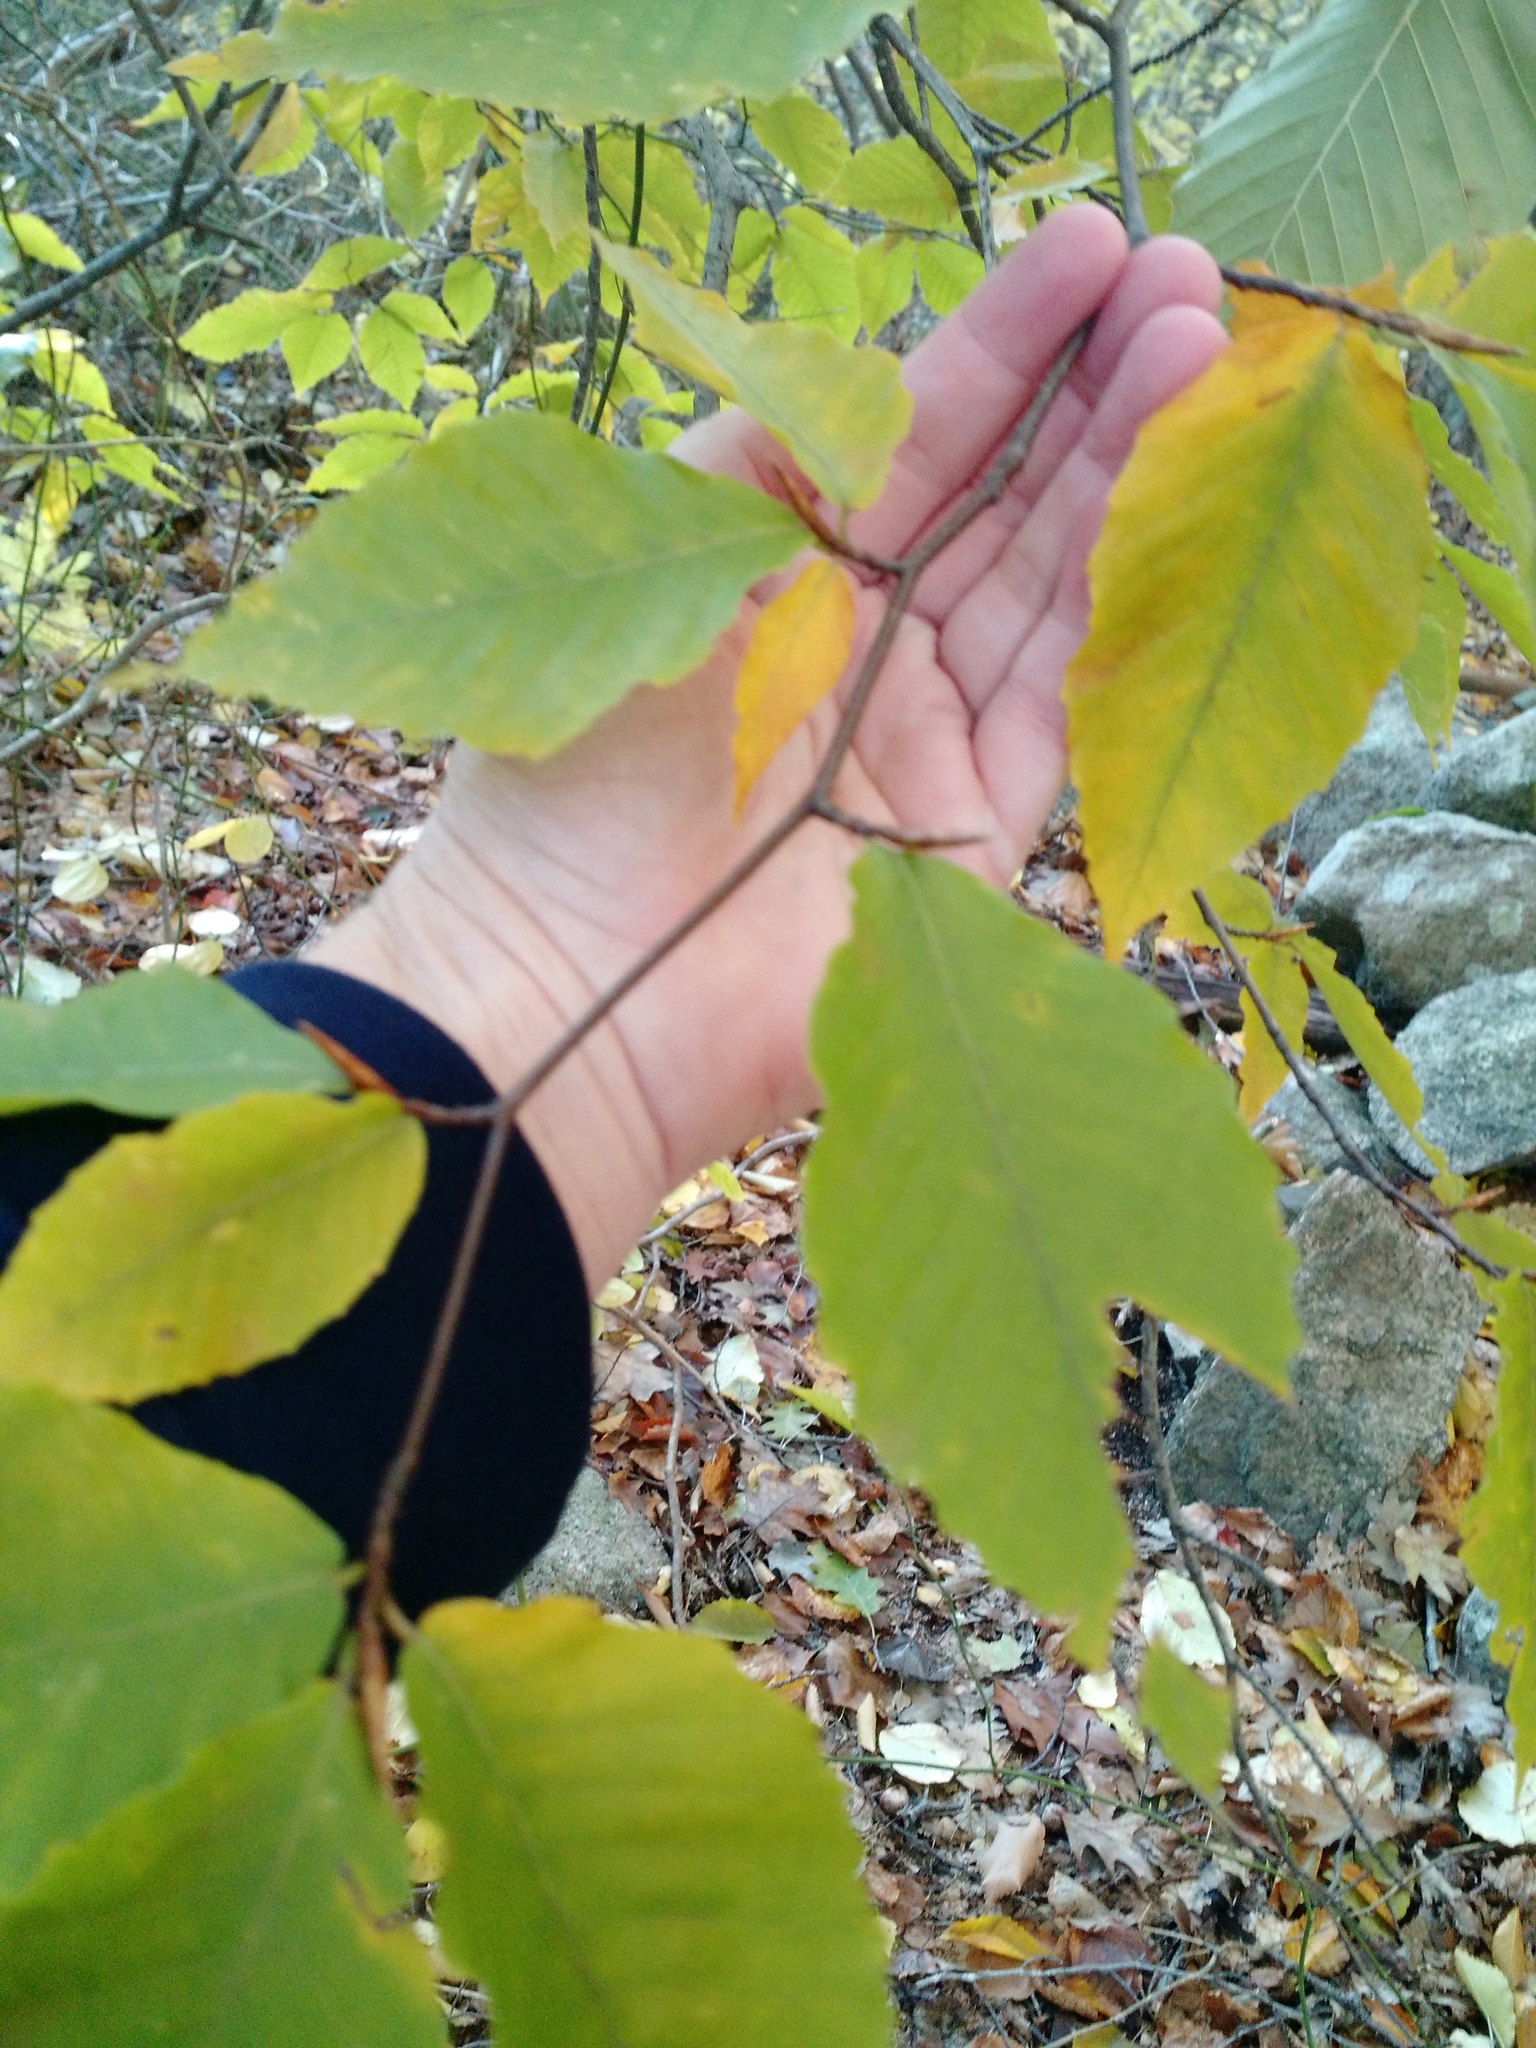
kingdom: Plantae
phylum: Tracheophyta
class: Magnoliopsida
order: Fagales
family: Fagaceae
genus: Fagus
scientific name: Fagus grandifolia
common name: American beech
